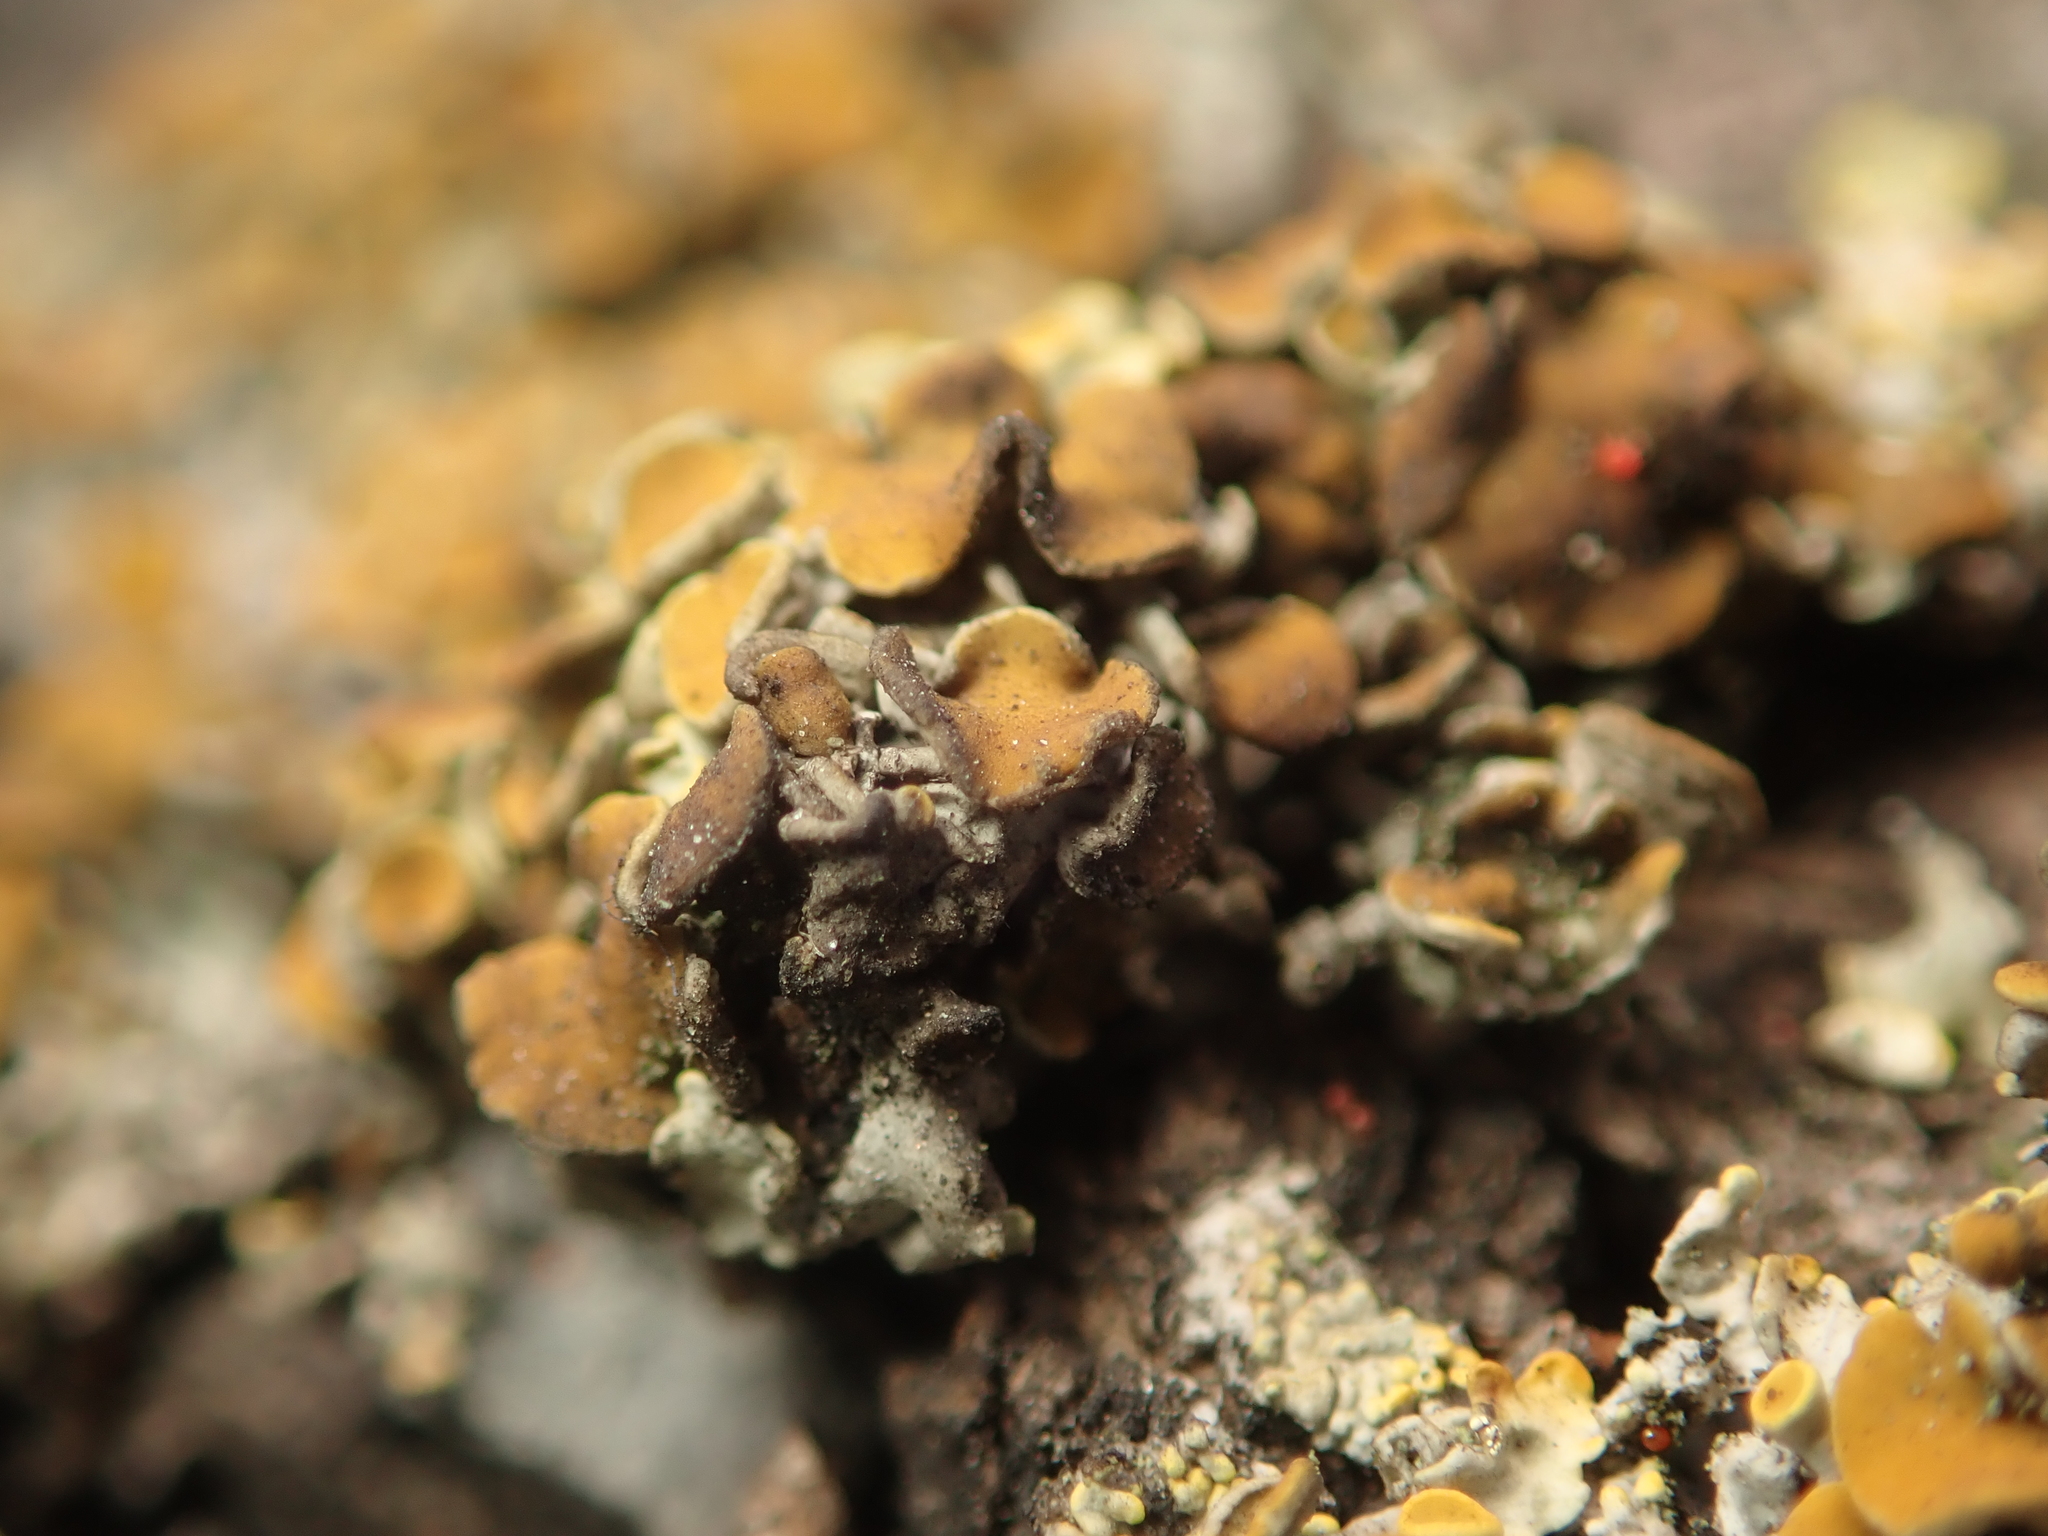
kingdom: Fungi
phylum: Ascomycota
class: Dothideomycetes
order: Mycosphaerellales
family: Teratosphaeriaceae
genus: Xanthoriicola
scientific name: Xanthoriicola physciae
